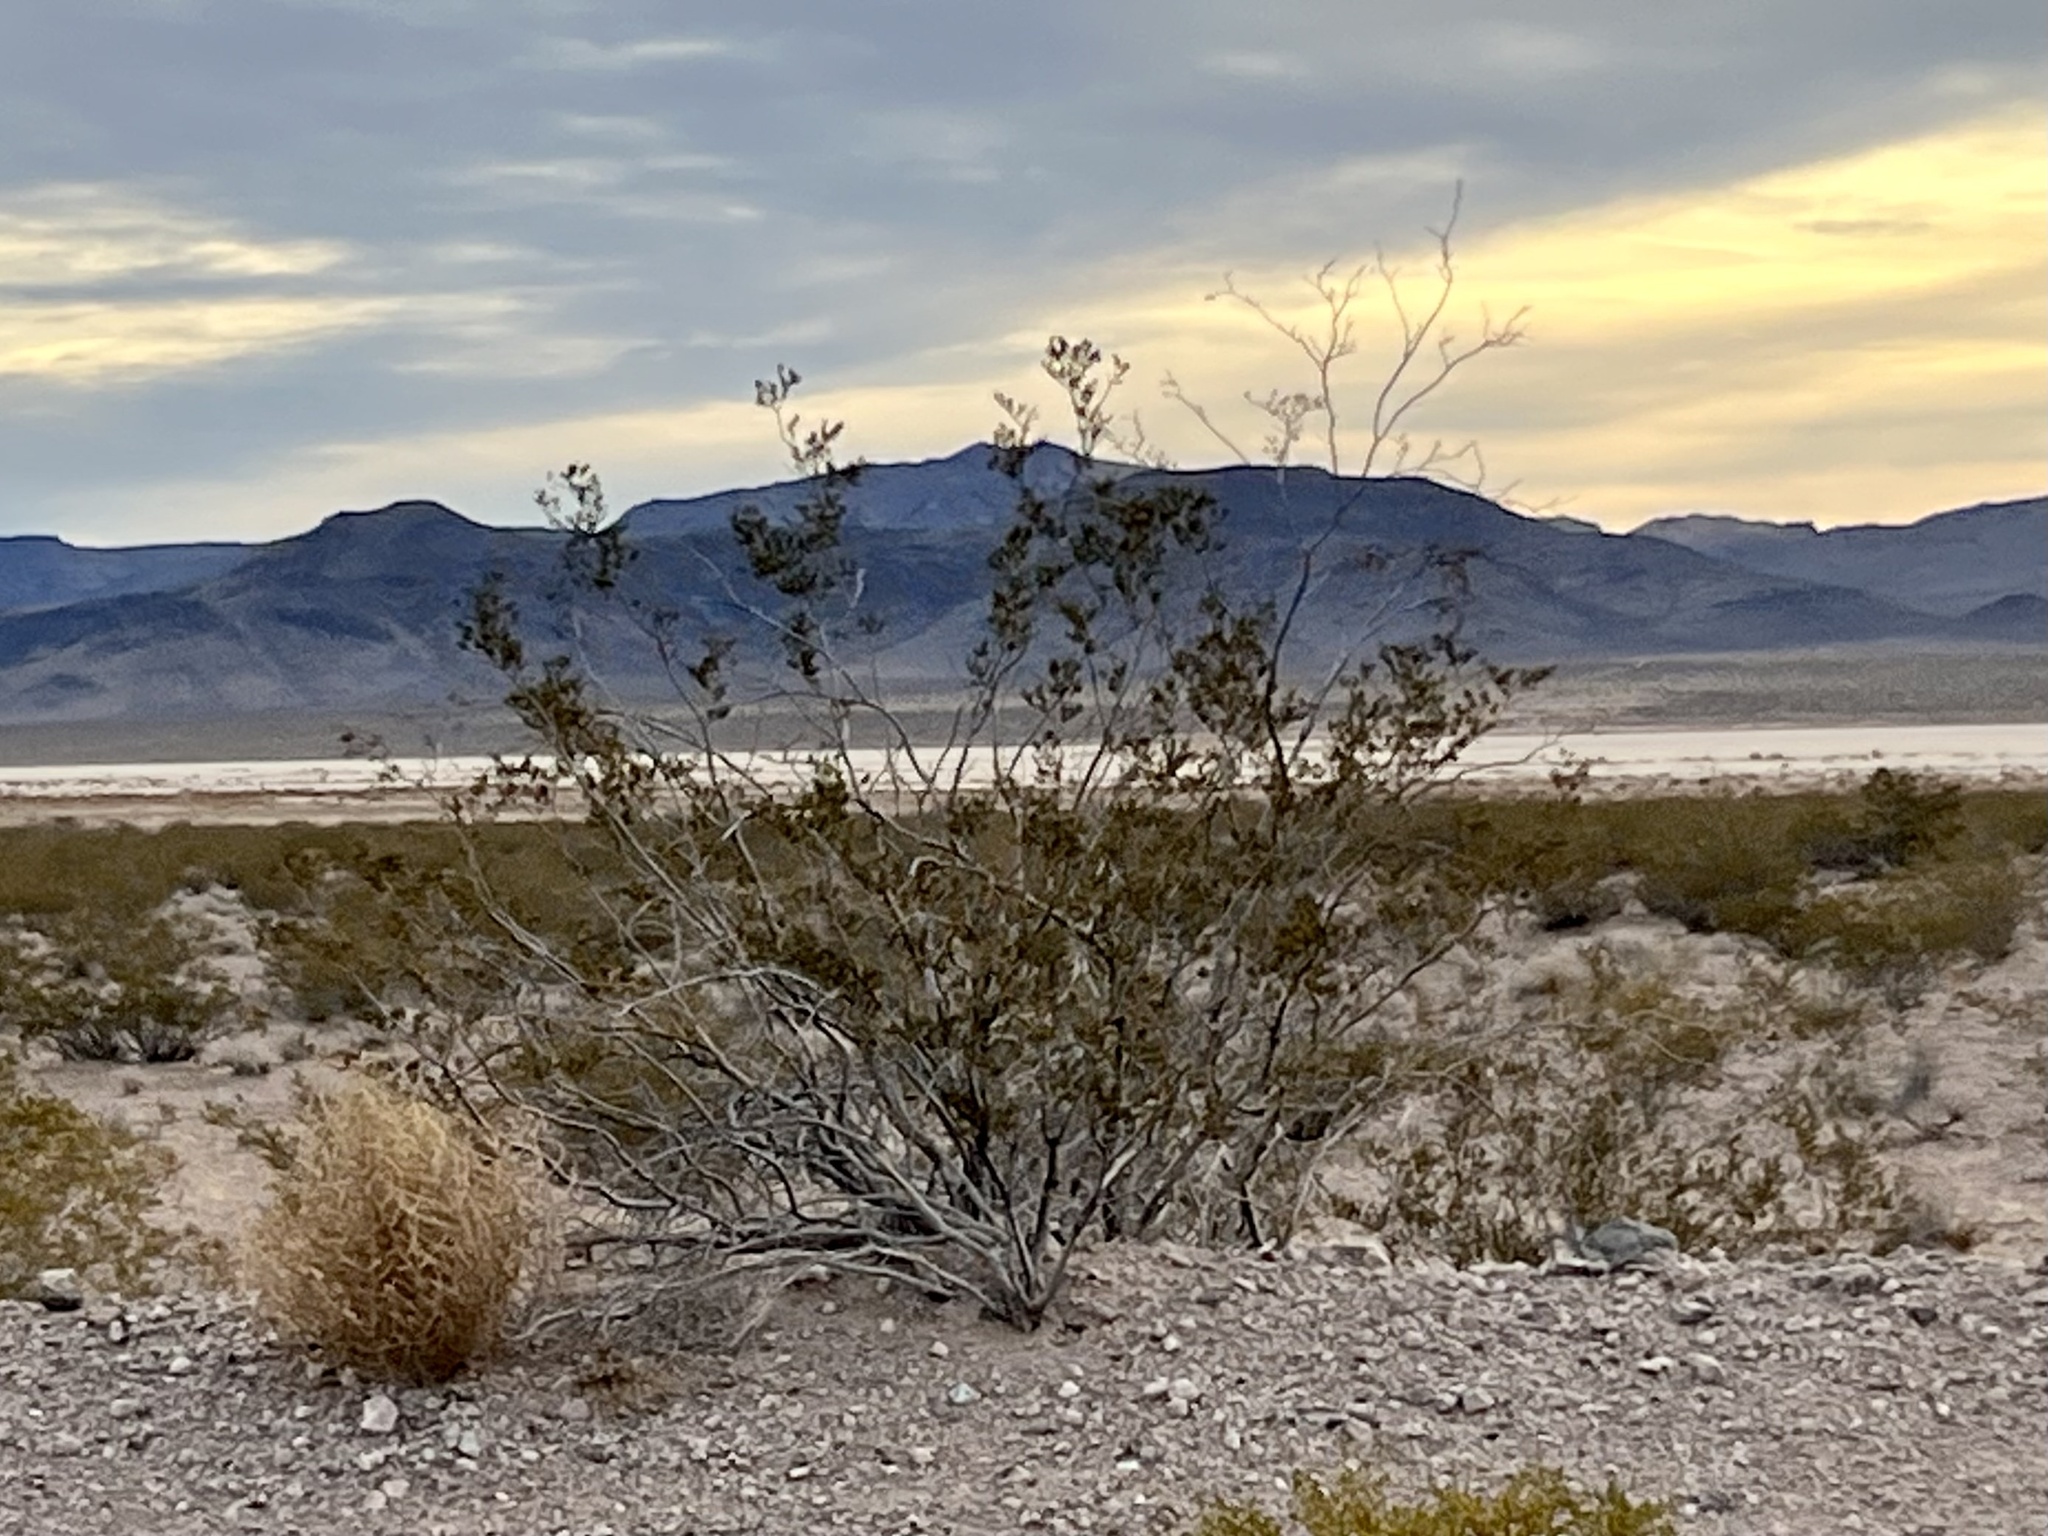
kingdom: Plantae
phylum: Tracheophyta
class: Magnoliopsida
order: Zygophyllales
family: Zygophyllaceae
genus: Larrea
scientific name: Larrea tridentata
